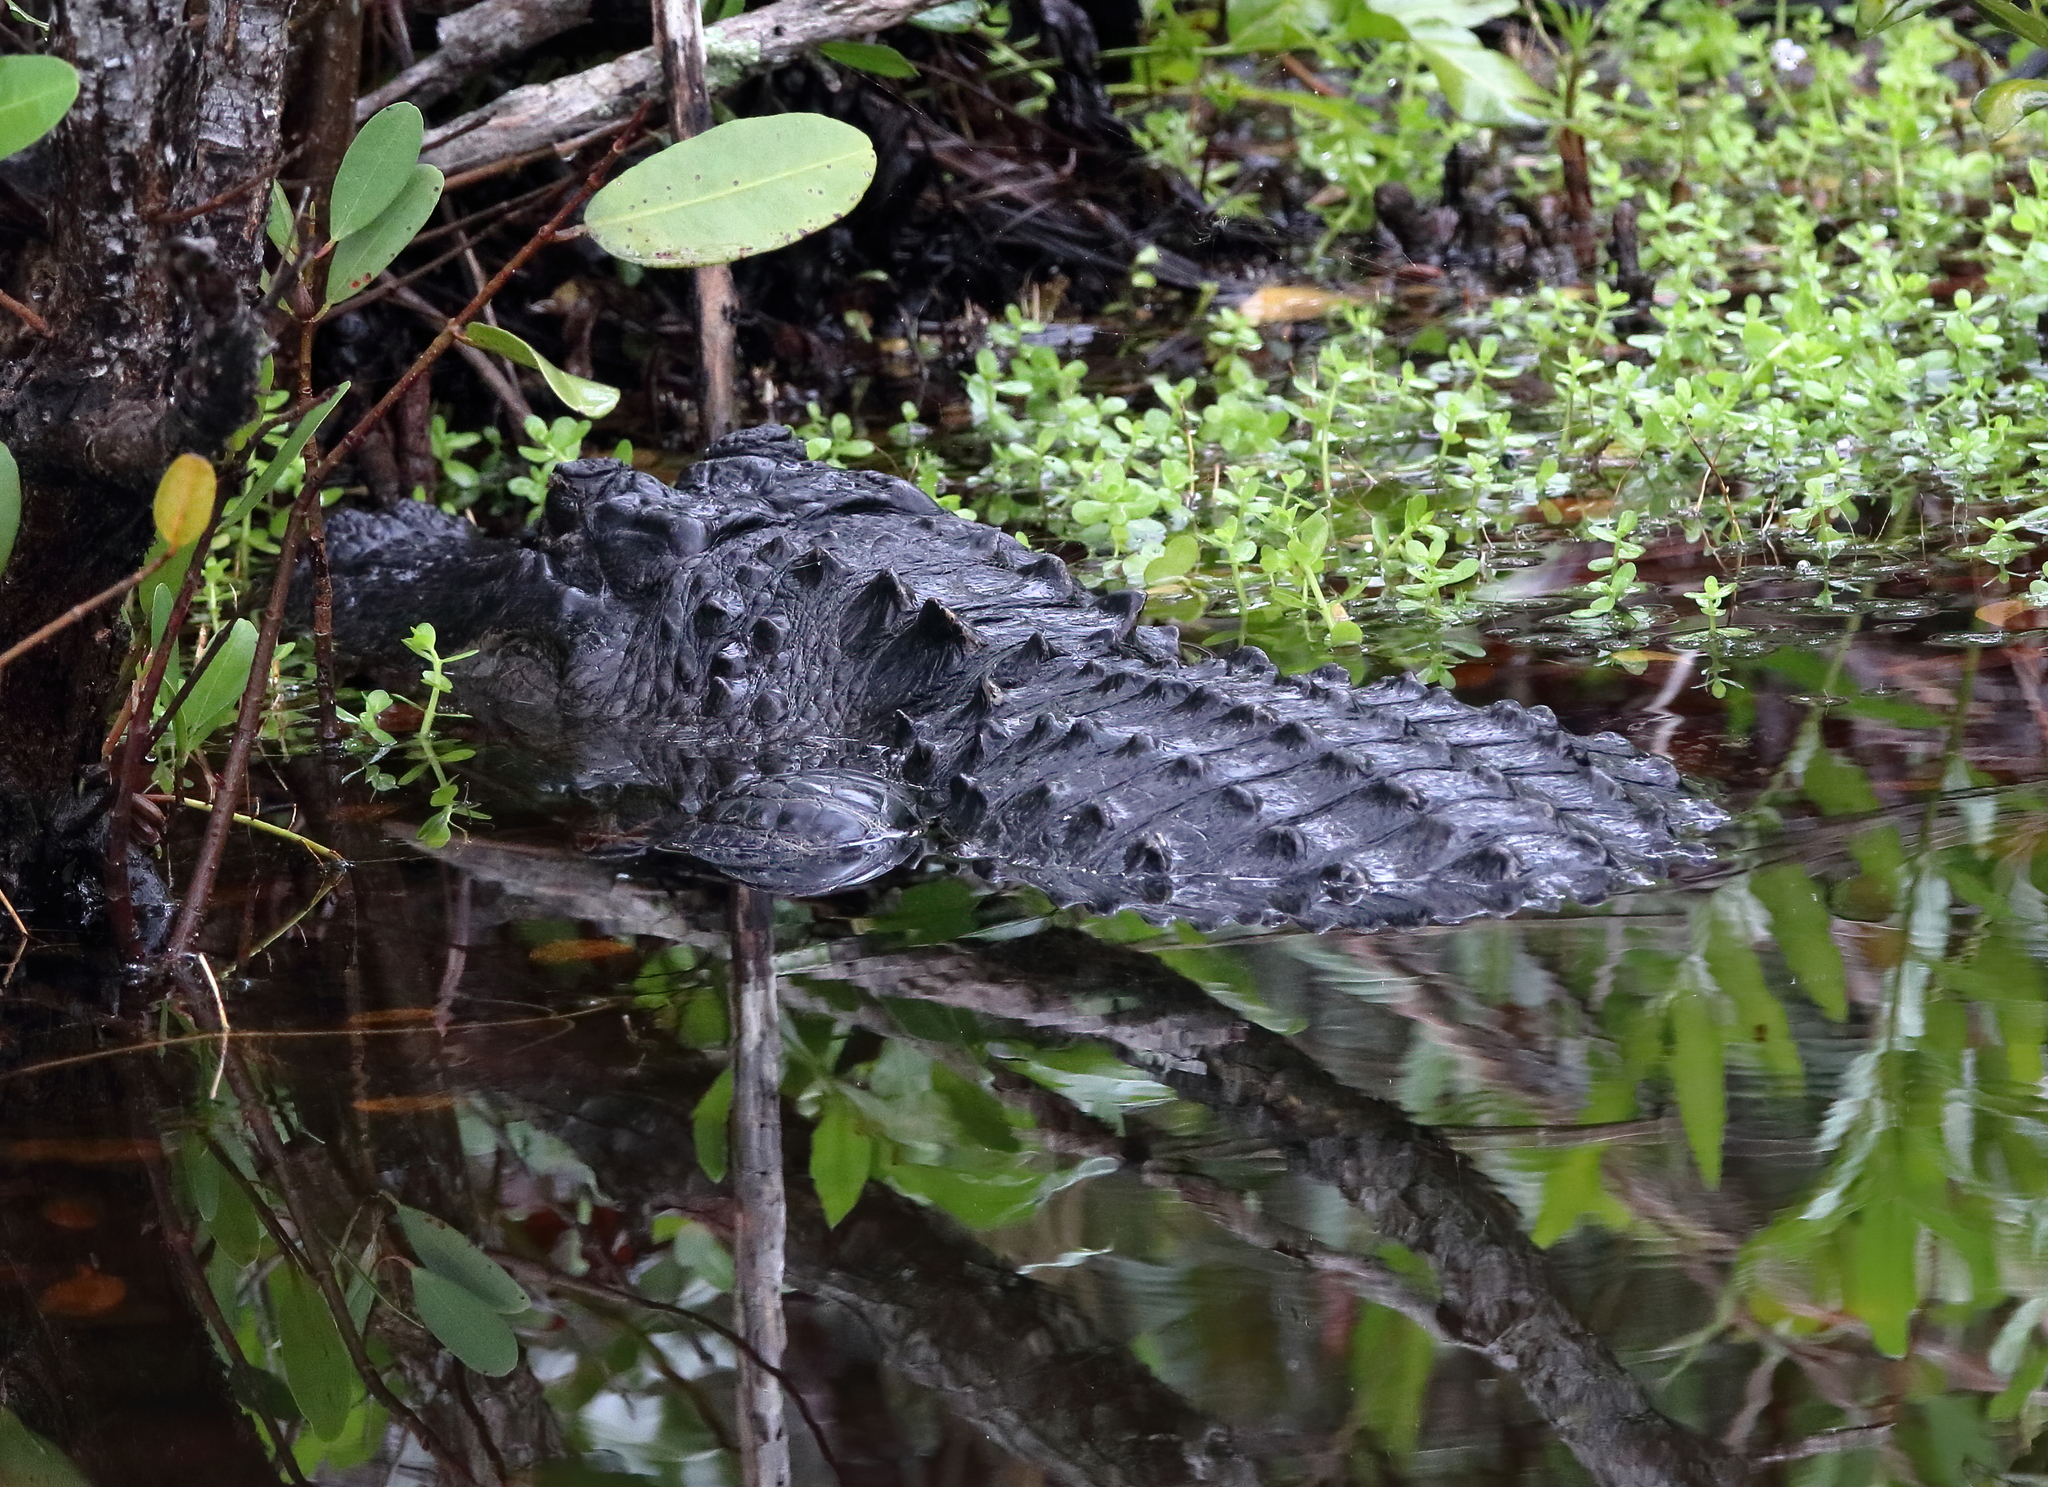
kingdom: Animalia
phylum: Chordata
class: Crocodylia
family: Alligatoridae
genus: Alligator
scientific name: Alligator mississippiensis
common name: American alligator
